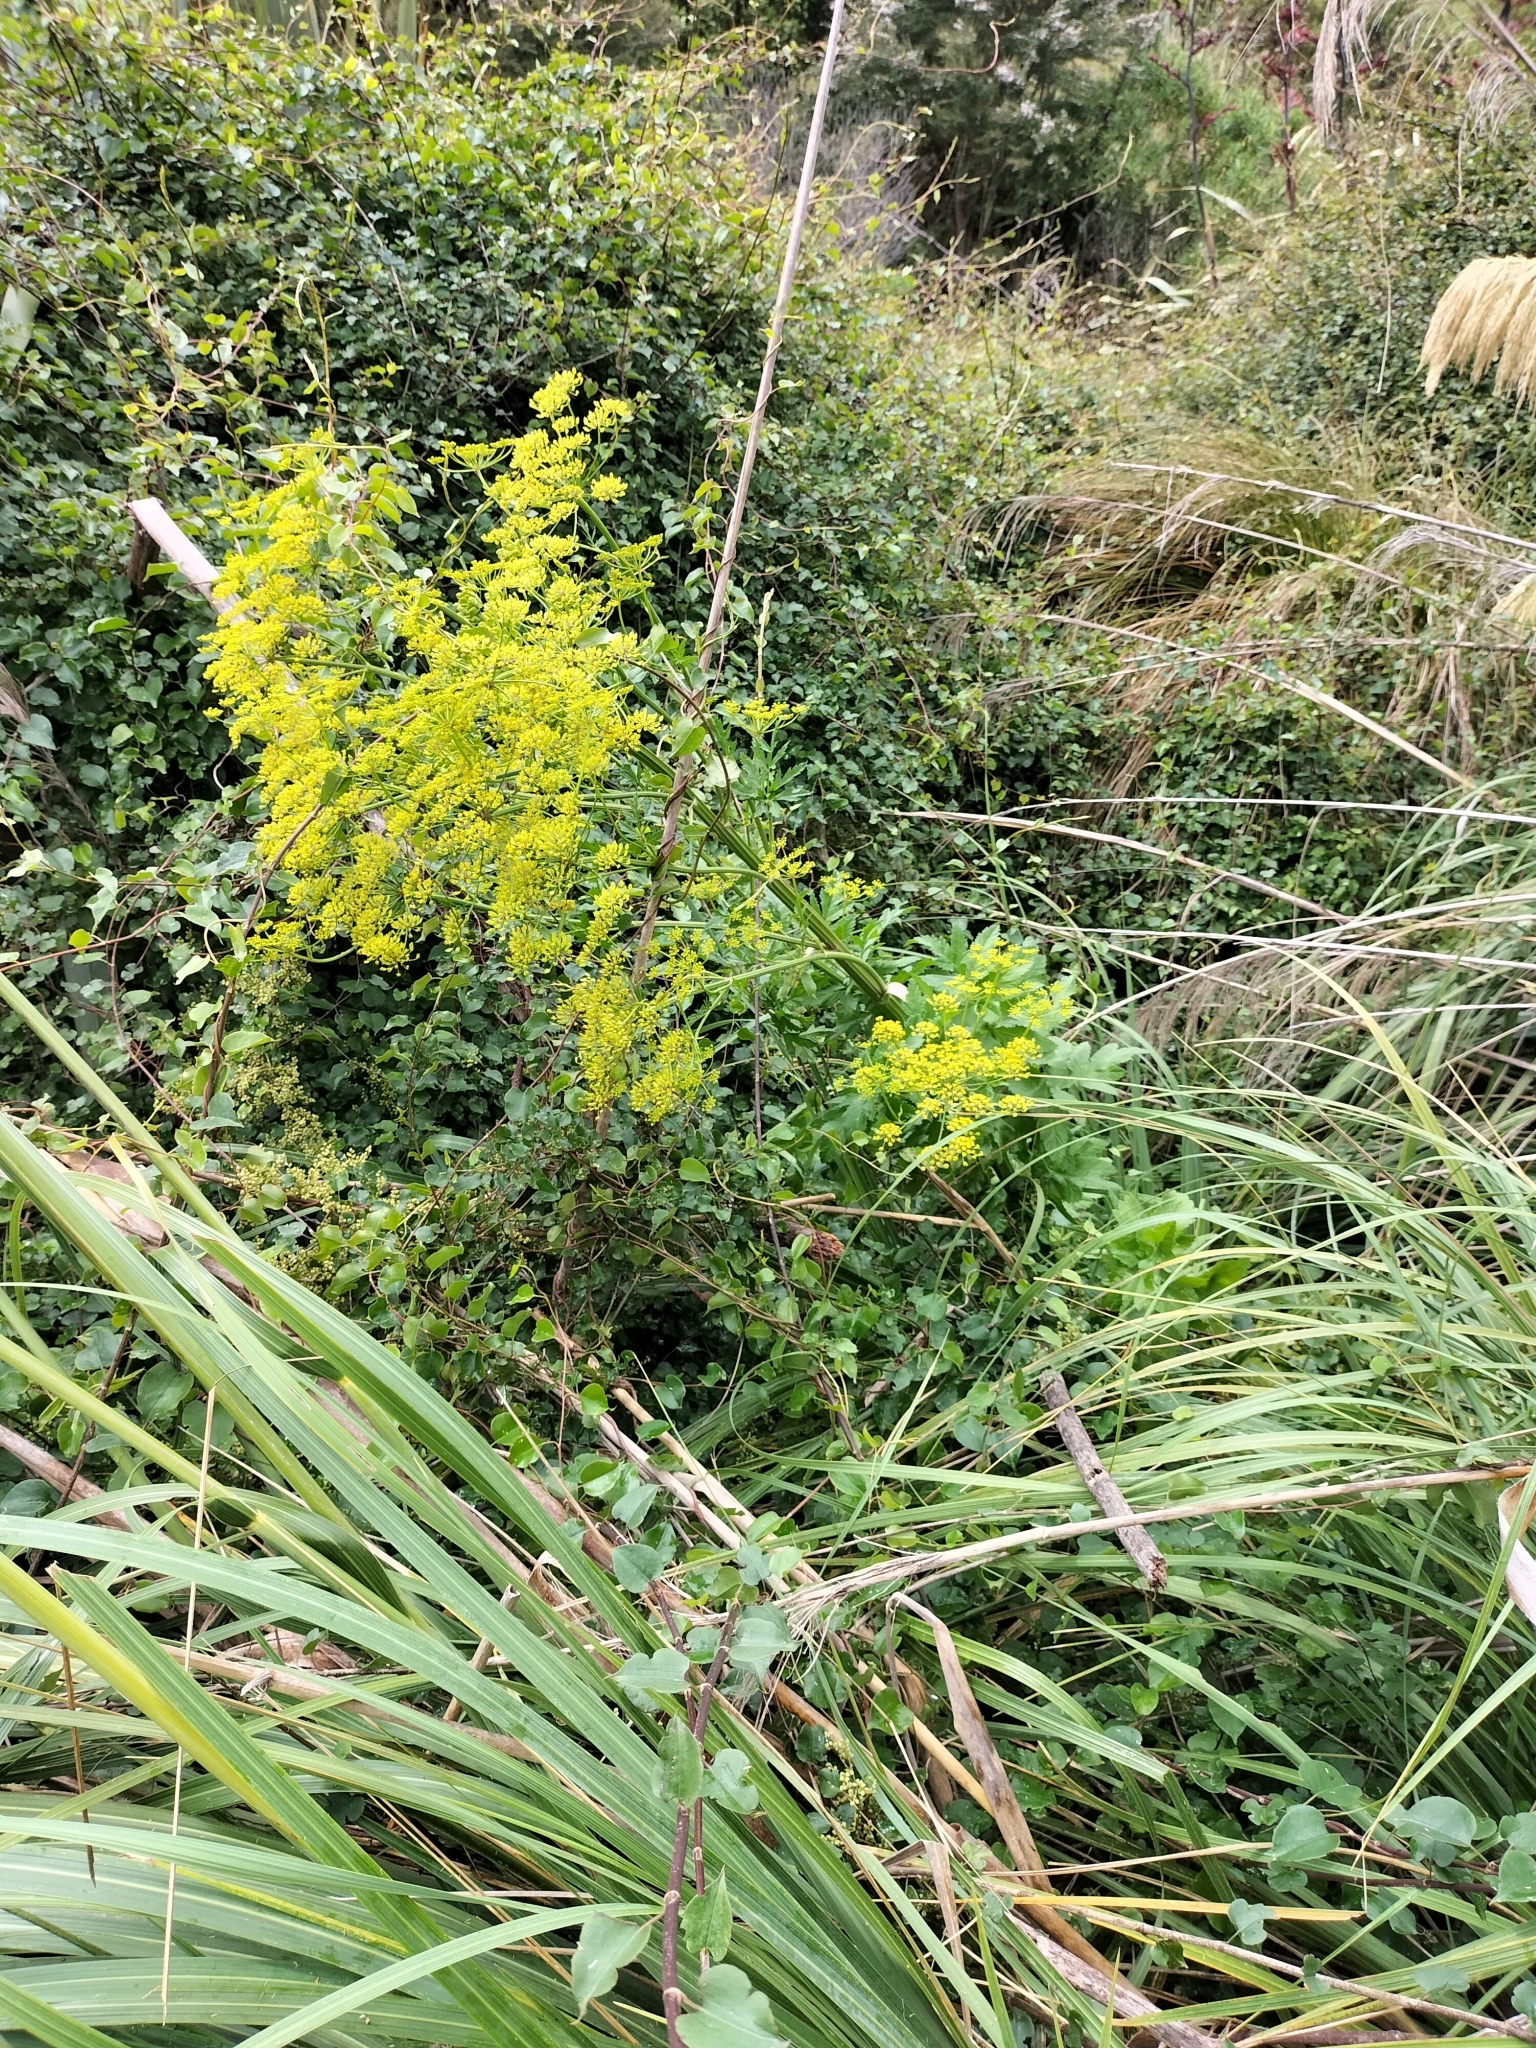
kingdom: Plantae
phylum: Tracheophyta
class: Magnoliopsida
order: Apiales
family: Apiaceae
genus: Pastinaca
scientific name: Pastinaca sativa
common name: Wild parsnip
